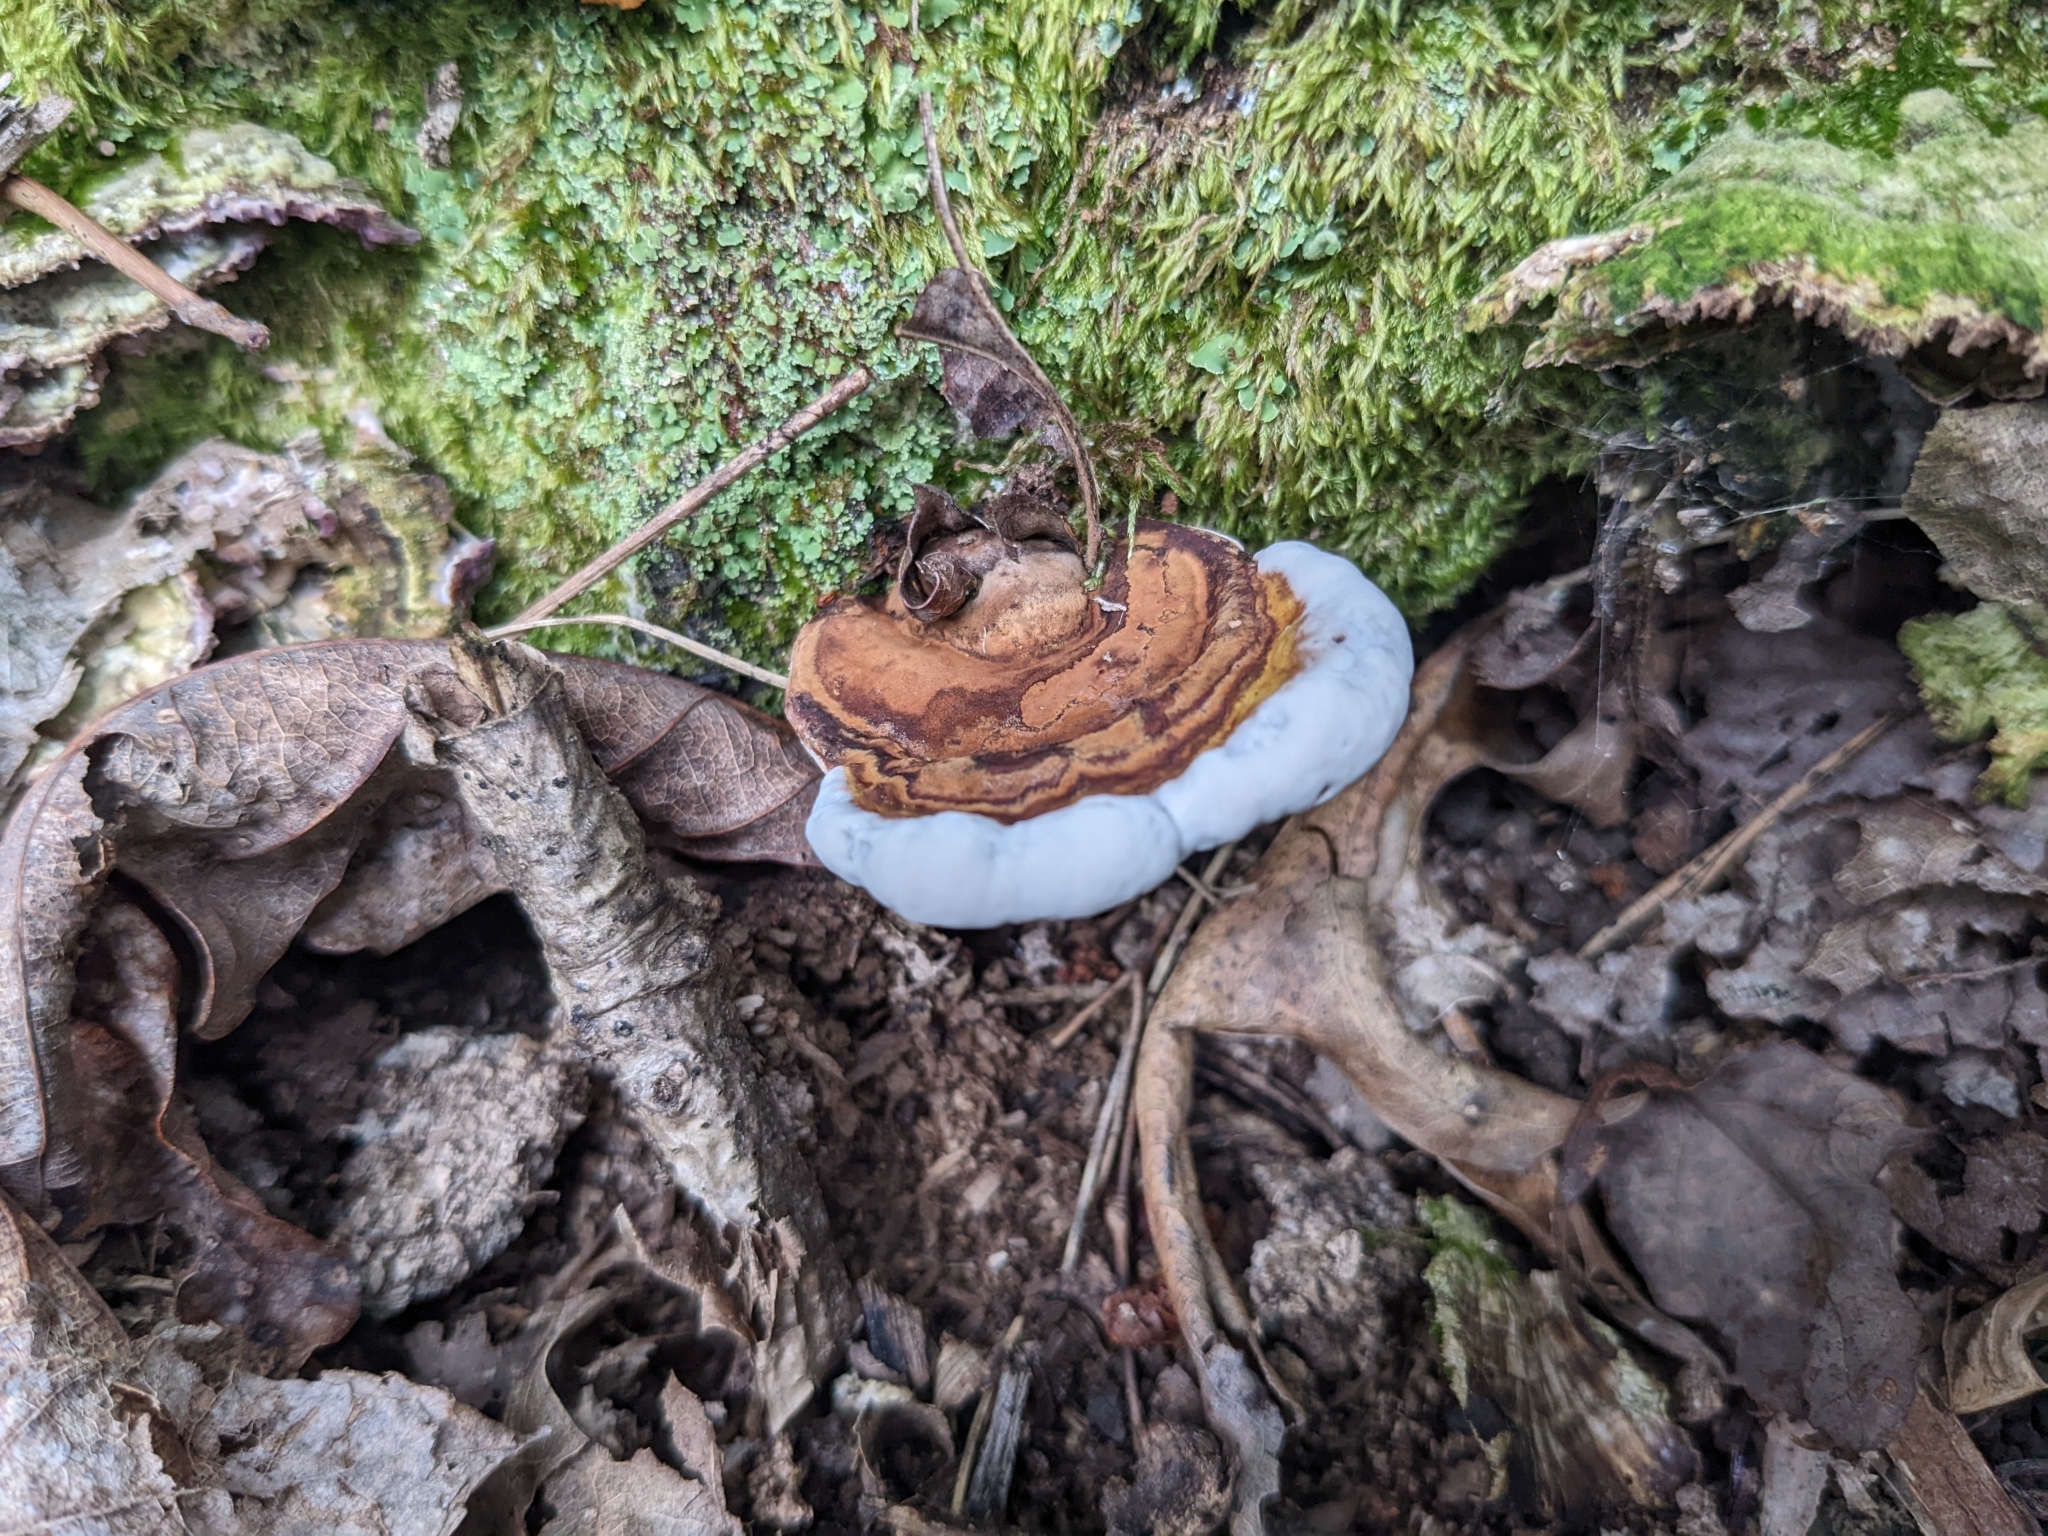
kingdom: Fungi
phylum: Basidiomycota
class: Agaricomycetes
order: Polyporales
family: Polyporaceae
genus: Ganoderma
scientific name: Ganoderma lobatum
